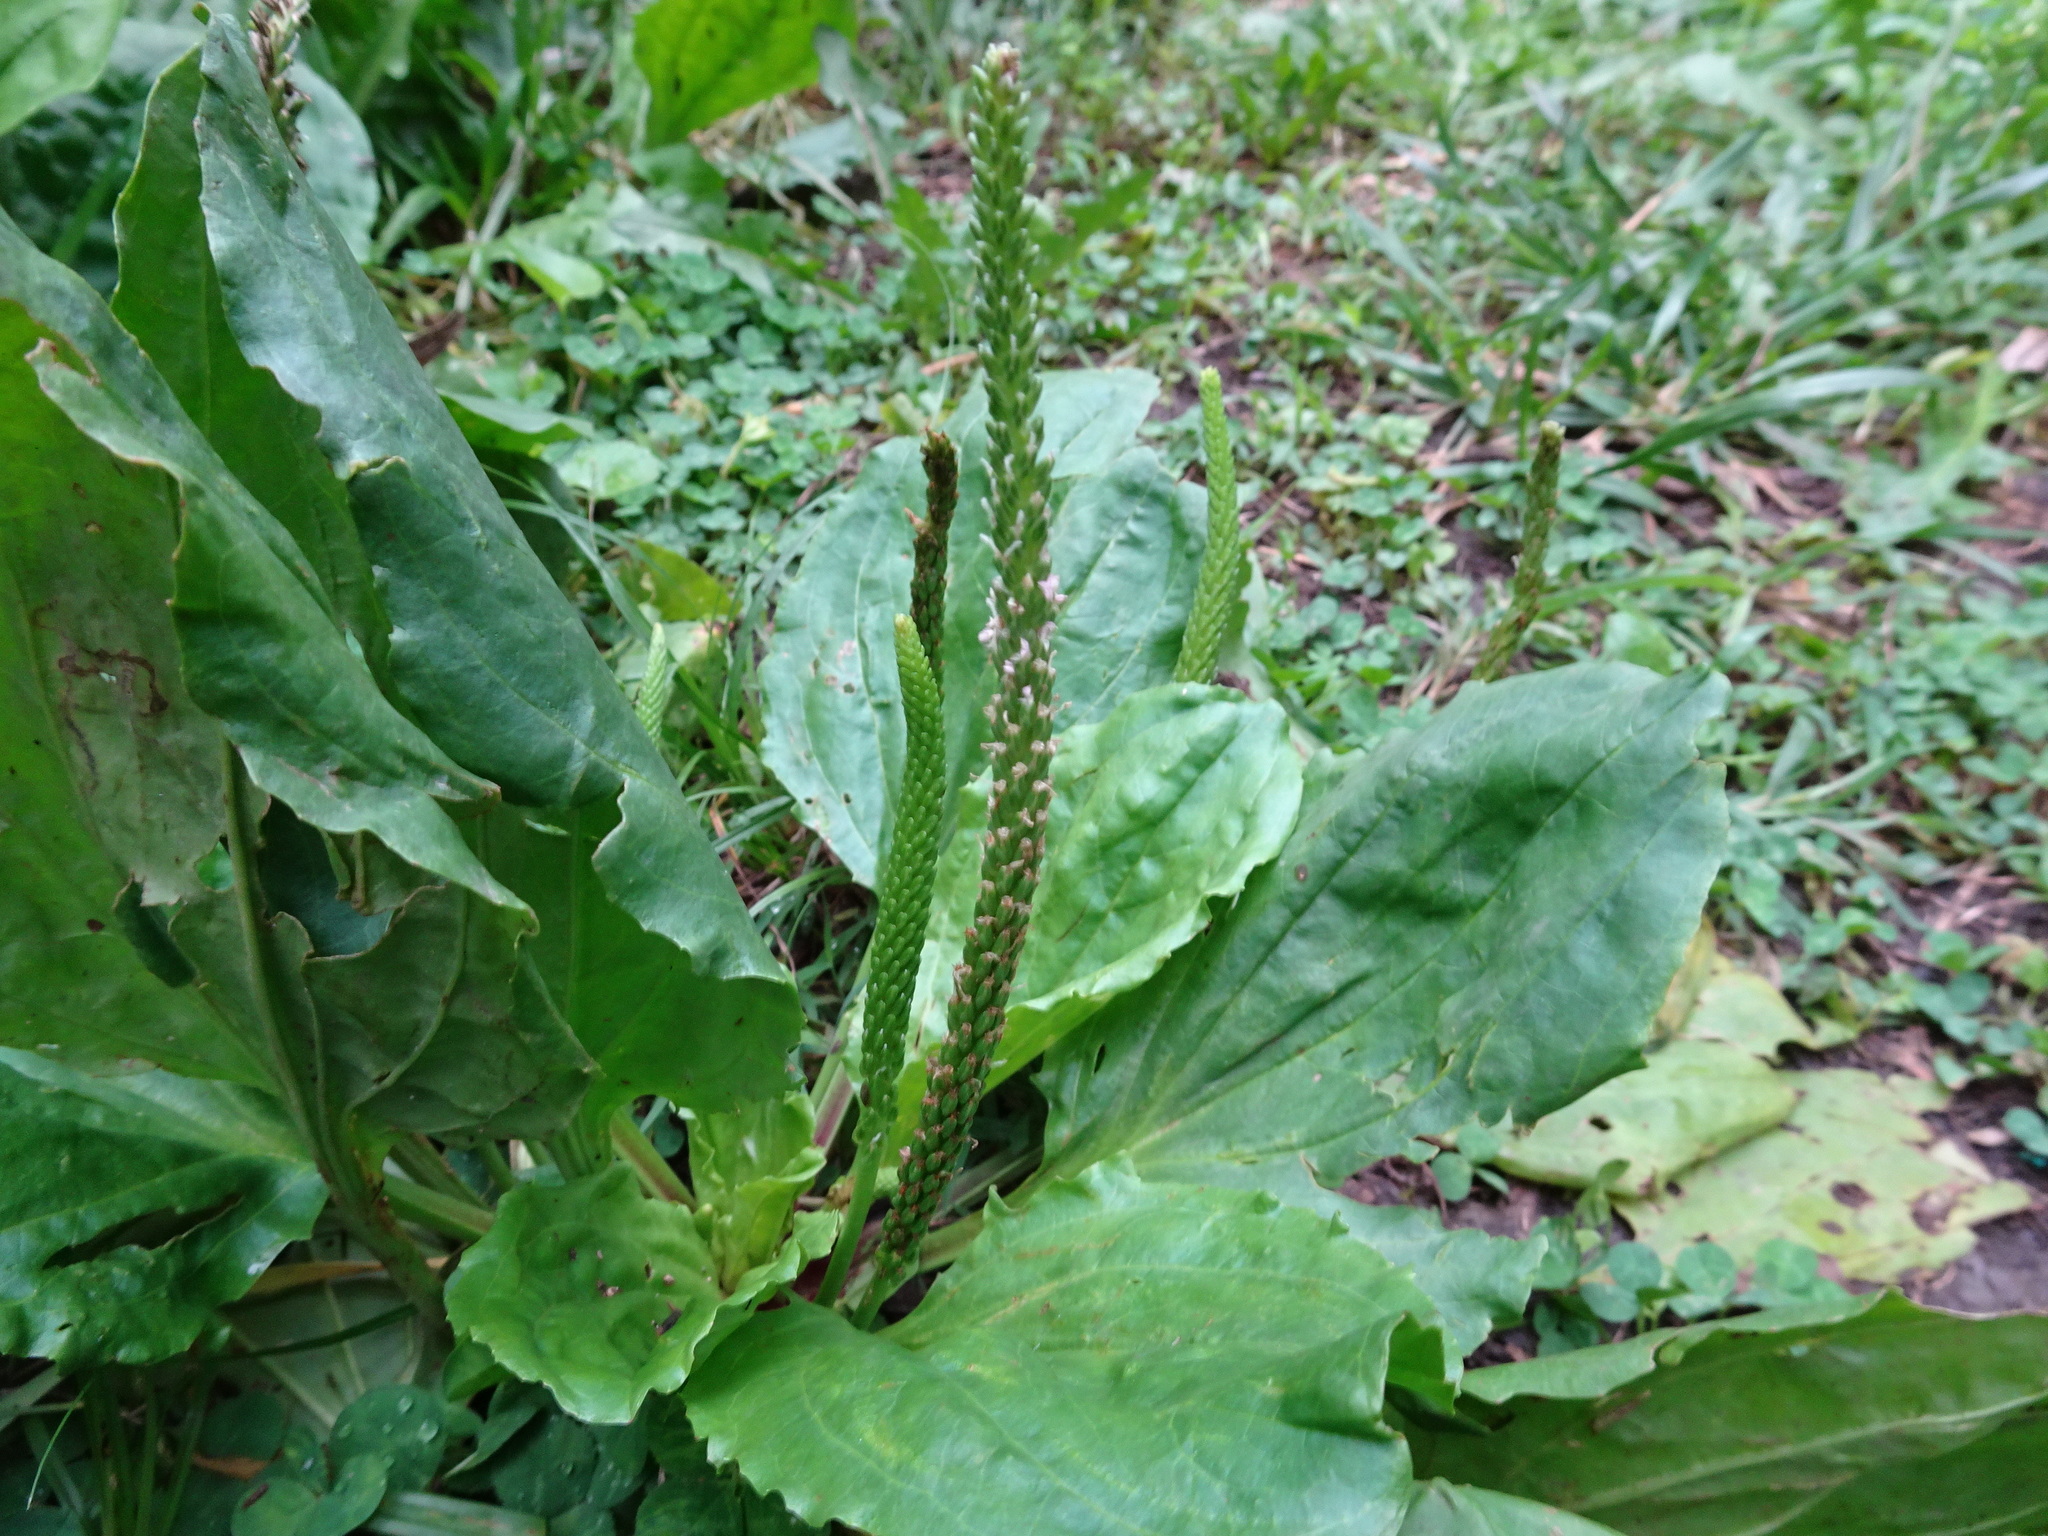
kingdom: Plantae
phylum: Tracheophyta
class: Magnoliopsida
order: Lamiales
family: Plantaginaceae
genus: Plantago
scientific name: Plantago rugelii
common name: American plantain
